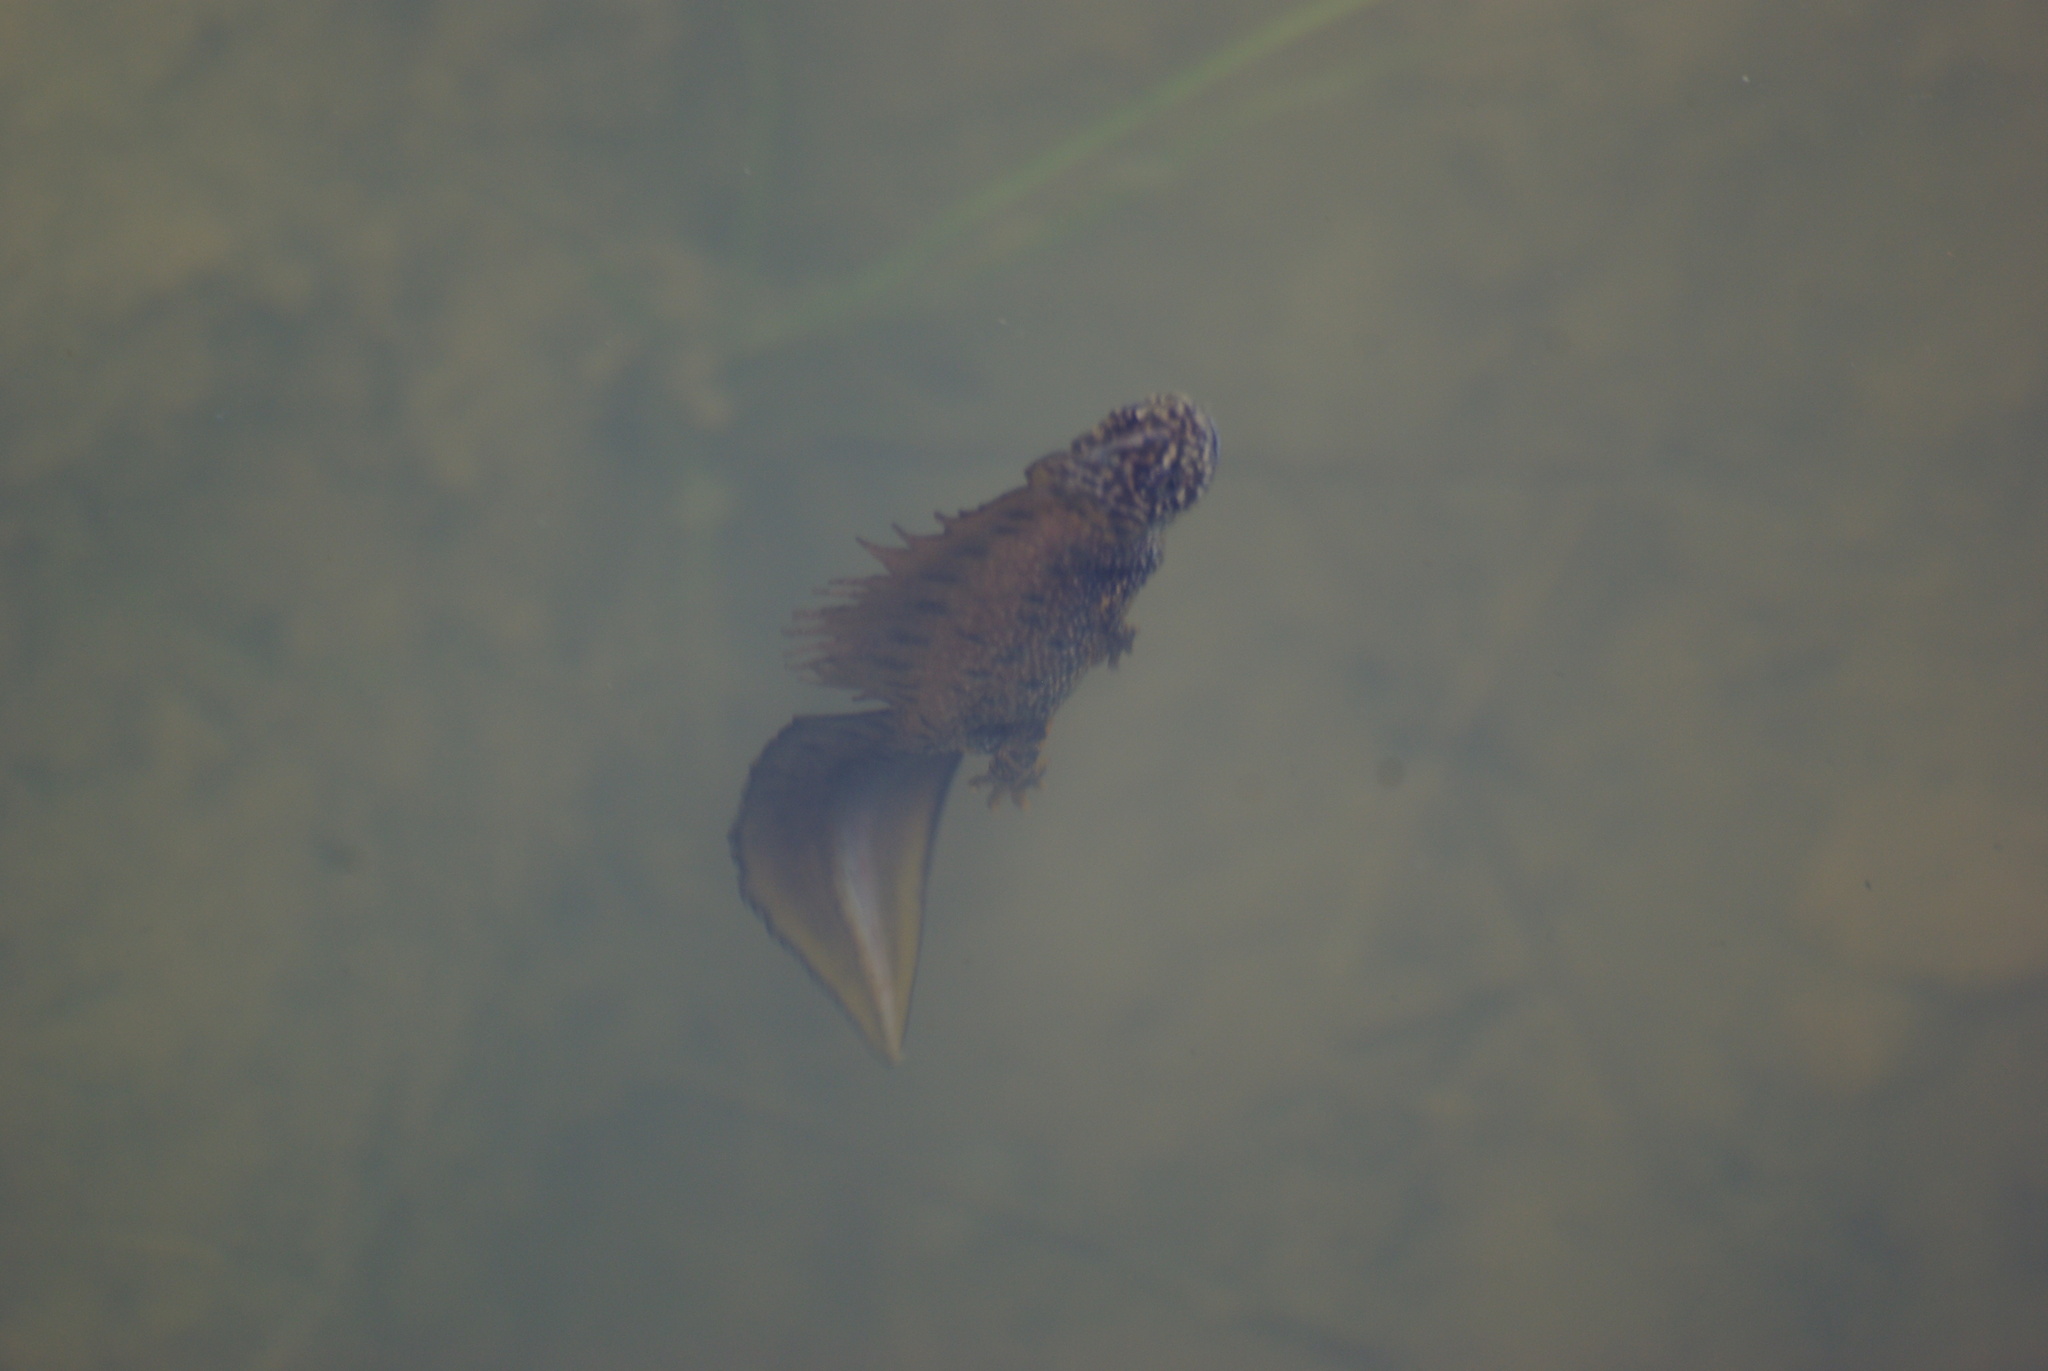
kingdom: Animalia
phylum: Chordata
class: Amphibia
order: Caudata
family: Salamandridae
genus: Triturus
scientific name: Triturus cristatus
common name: Crested newt
